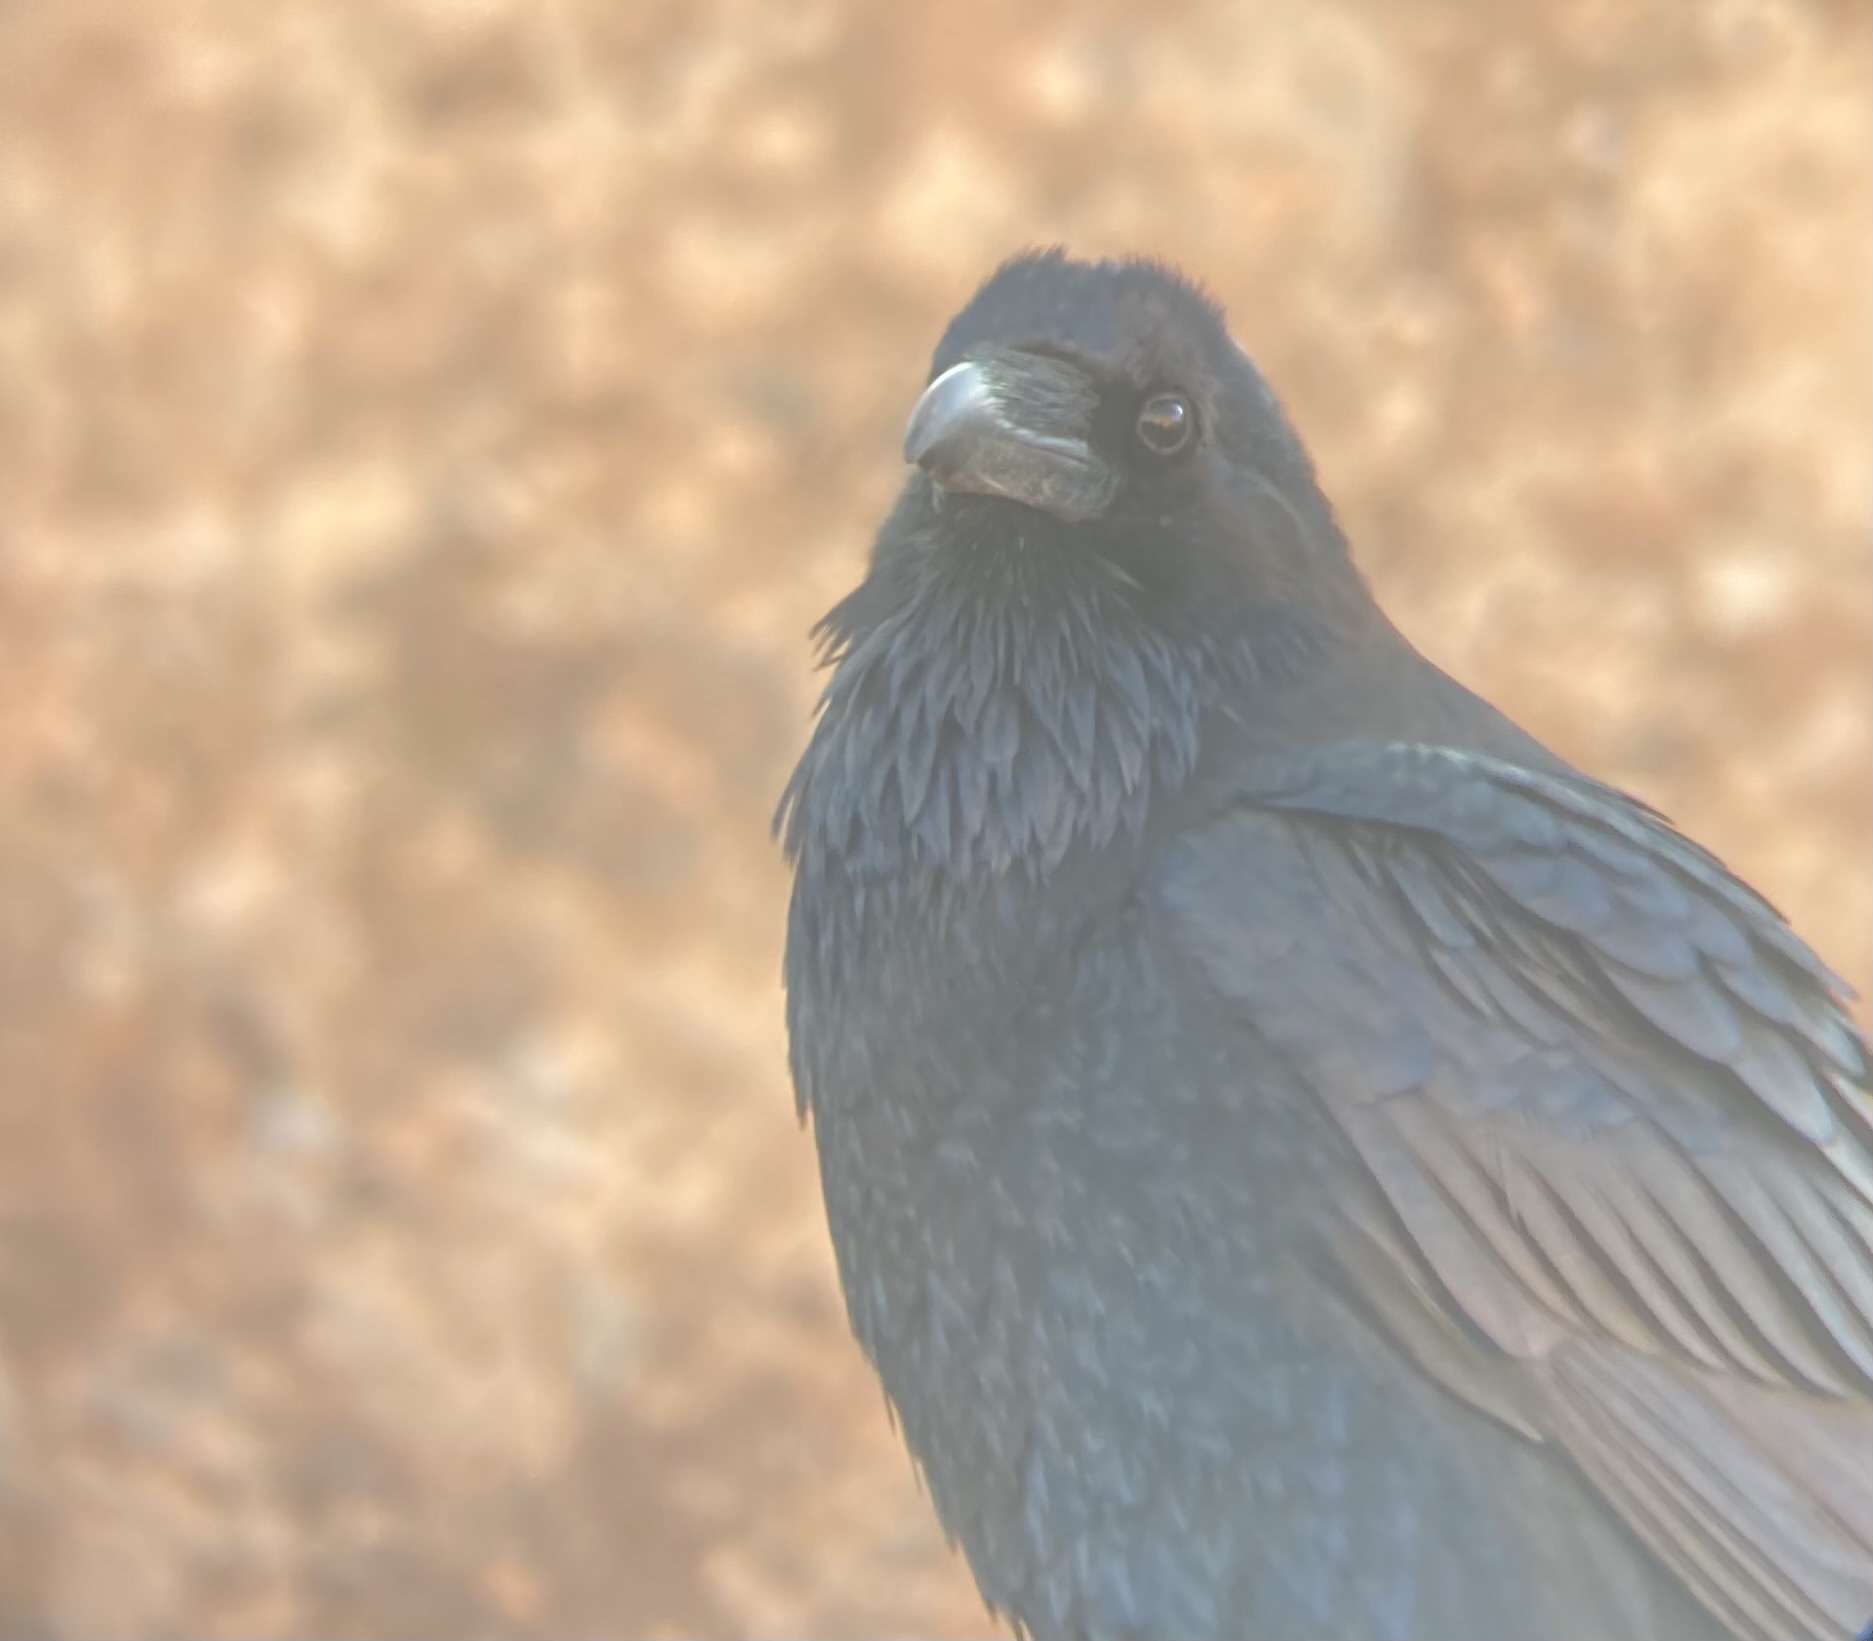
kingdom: Animalia
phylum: Chordata
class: Aves
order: Passeriformes
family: Corvidae
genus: Corvus
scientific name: Corvus corax
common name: Common raven
